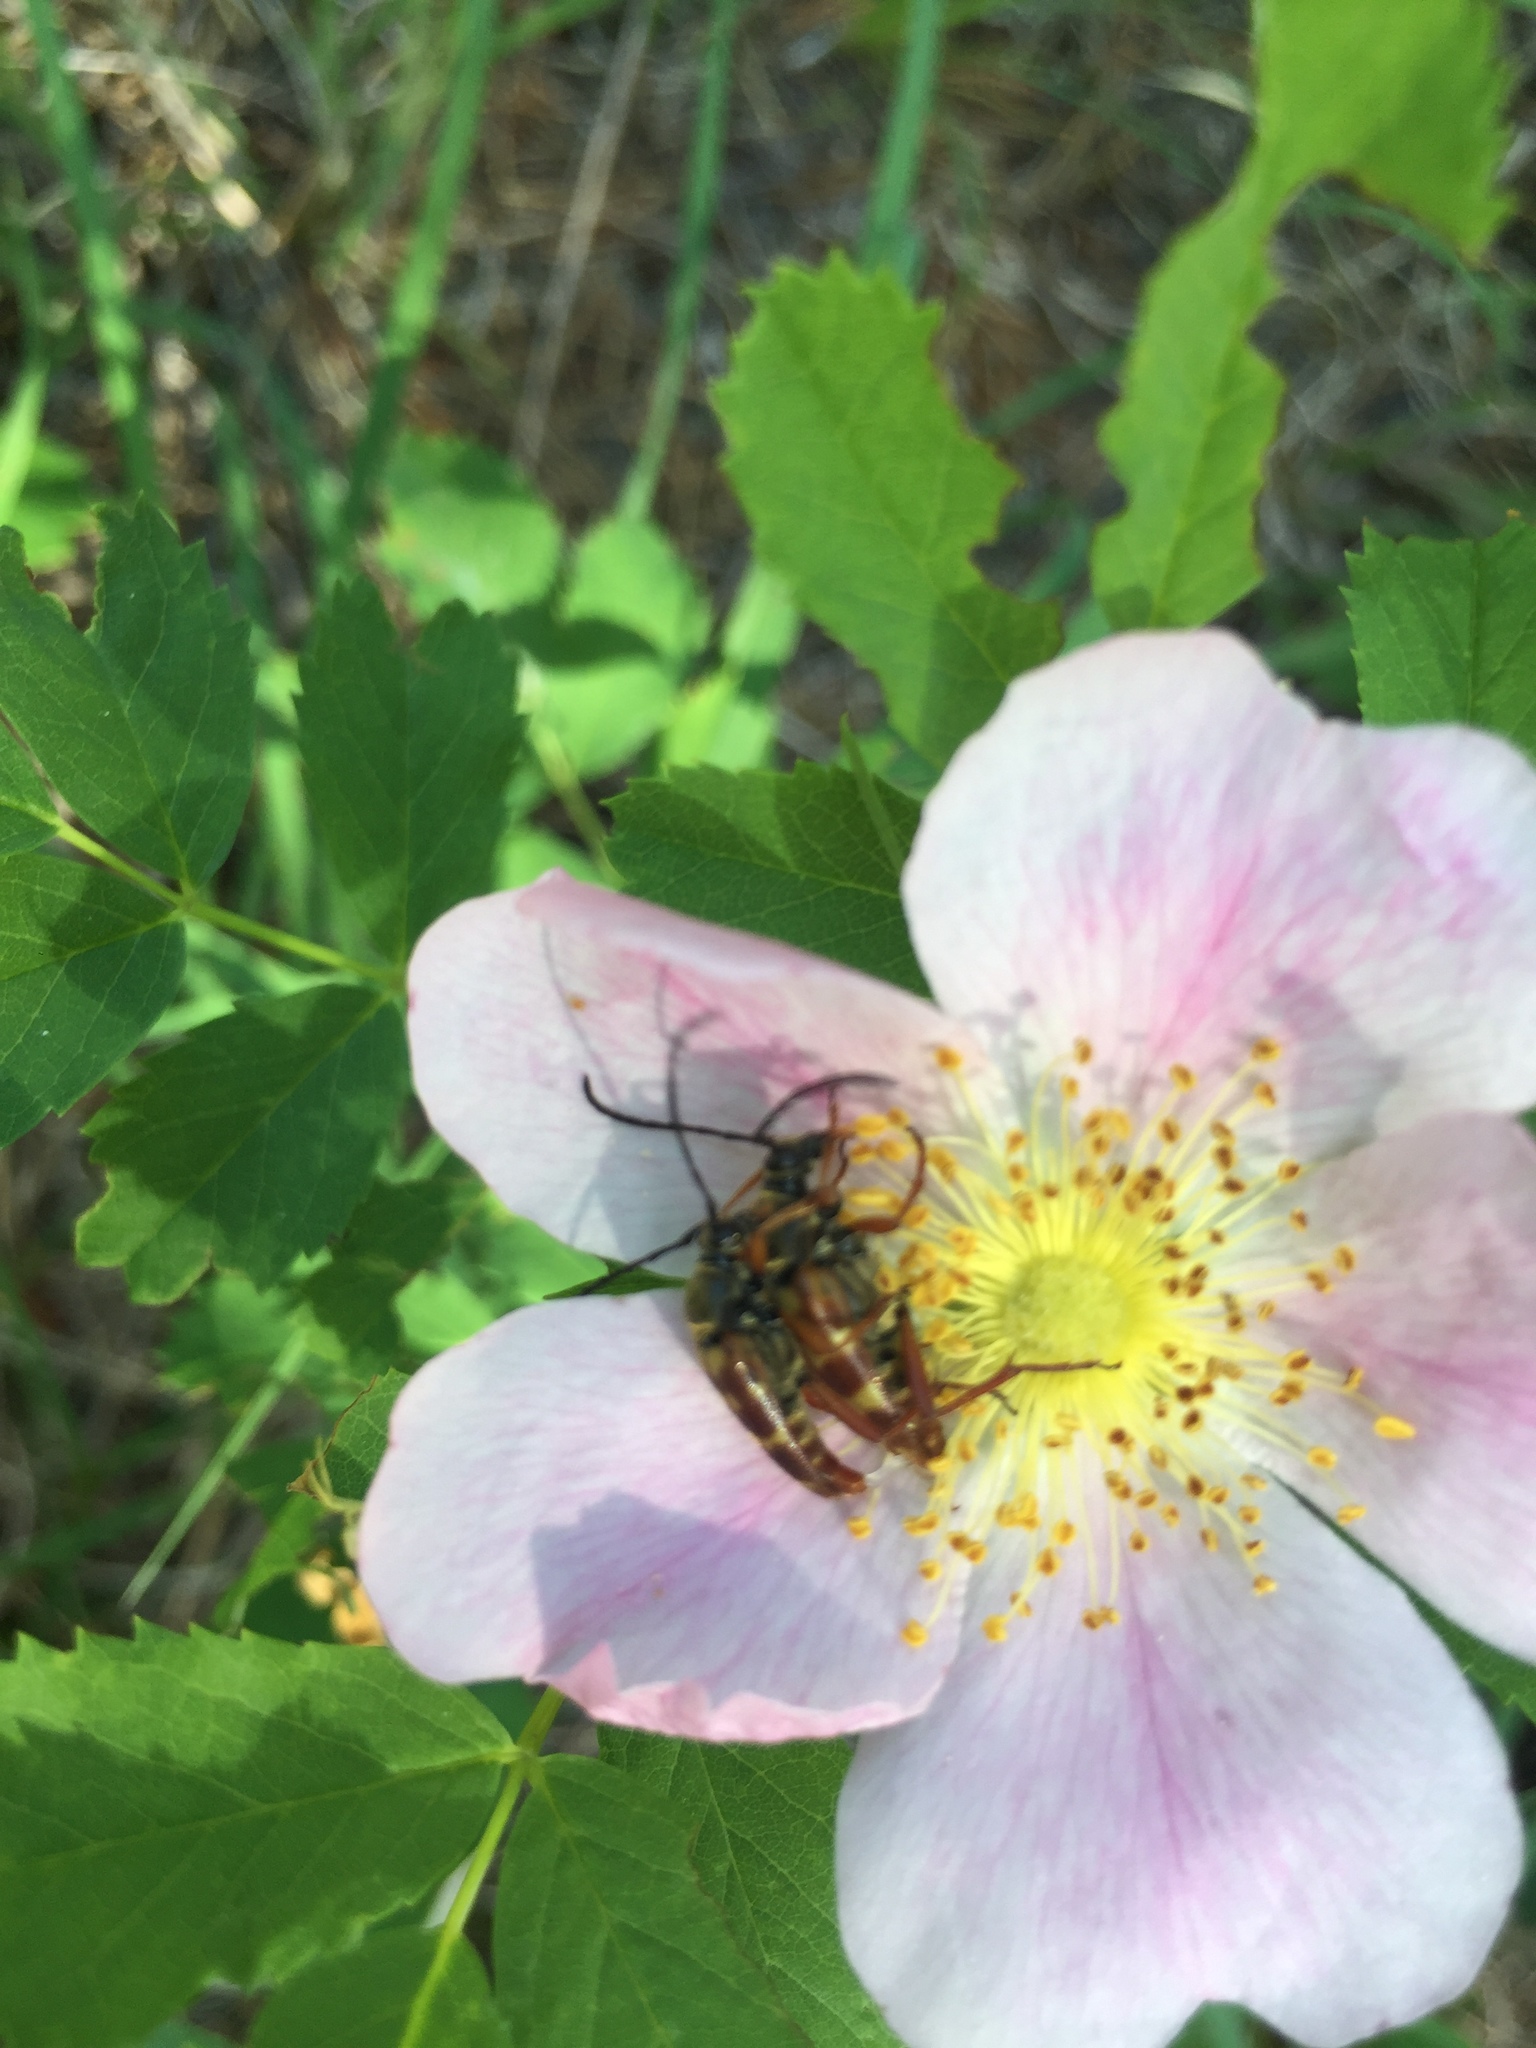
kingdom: Animalia
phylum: Arthropoda
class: Insecta
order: Coleoptera
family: Cerambycidae
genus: Typocerus
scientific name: Typocerus velutinus
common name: Banded longhorn beetle
